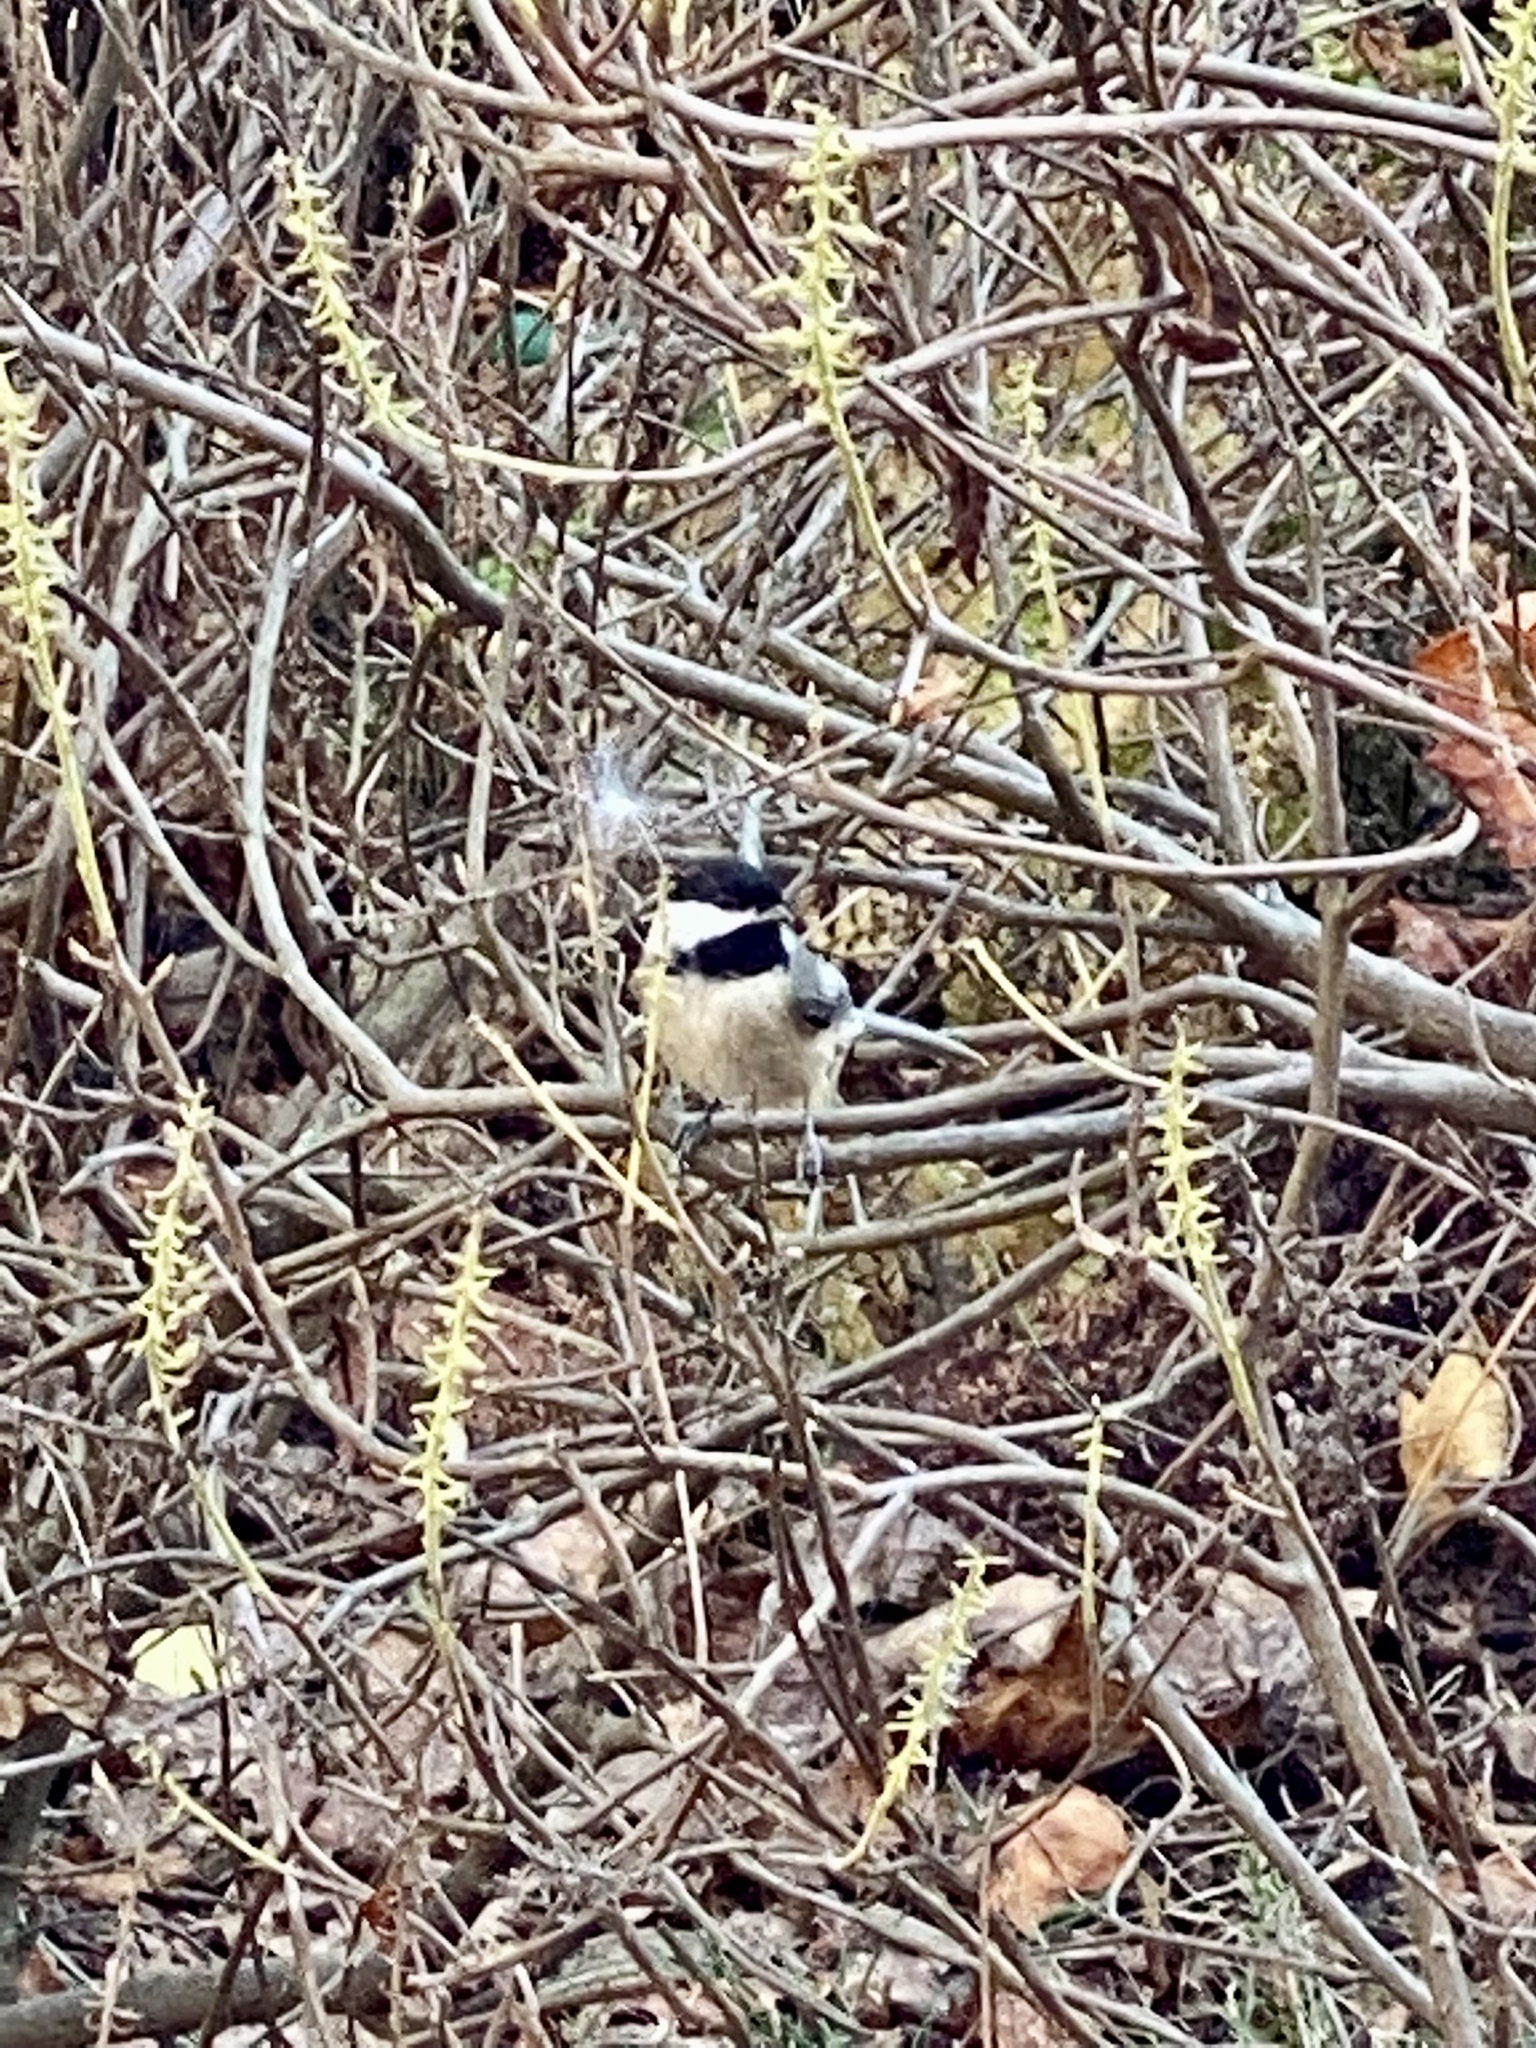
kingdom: Animalia
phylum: Chordata
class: Aves
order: Passeriformes
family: Paridae
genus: Poecile
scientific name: Poecile atricapillus
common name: Black-capped chickadee
